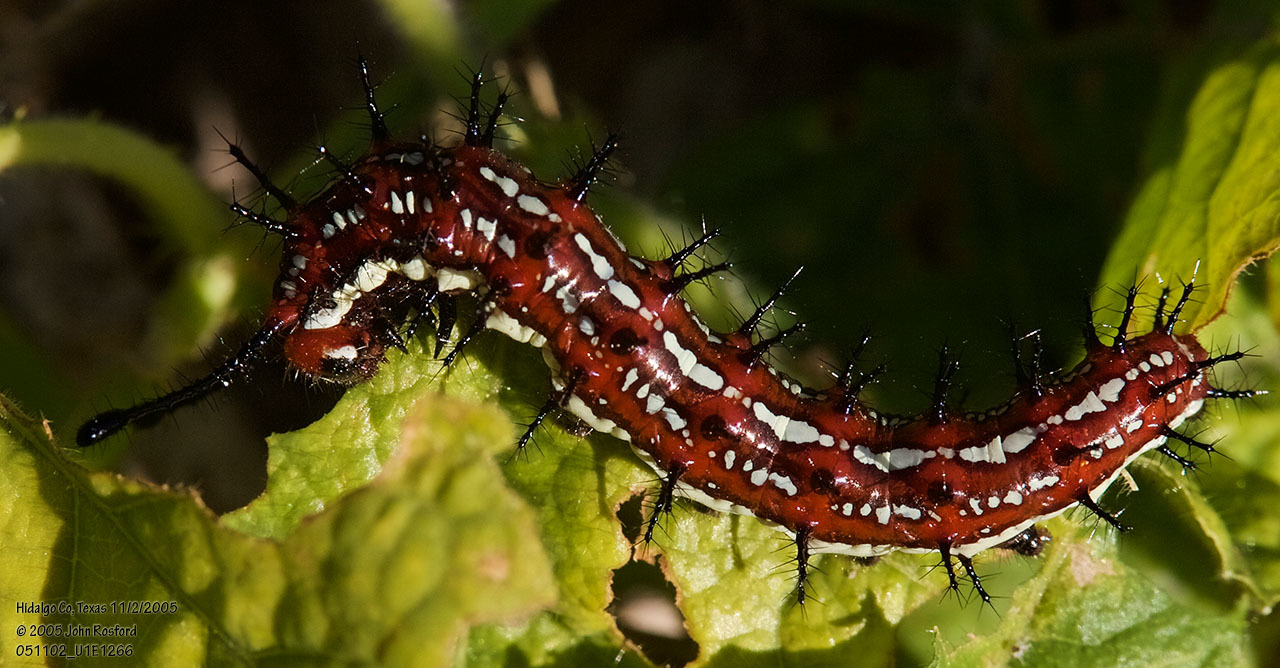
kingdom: Animalia
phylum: Arthropoda
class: Insecta
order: Lepidoptera
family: Nymphalidae
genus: Euptoieta
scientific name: Euptoieta hegesia
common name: Mexican fritillary
